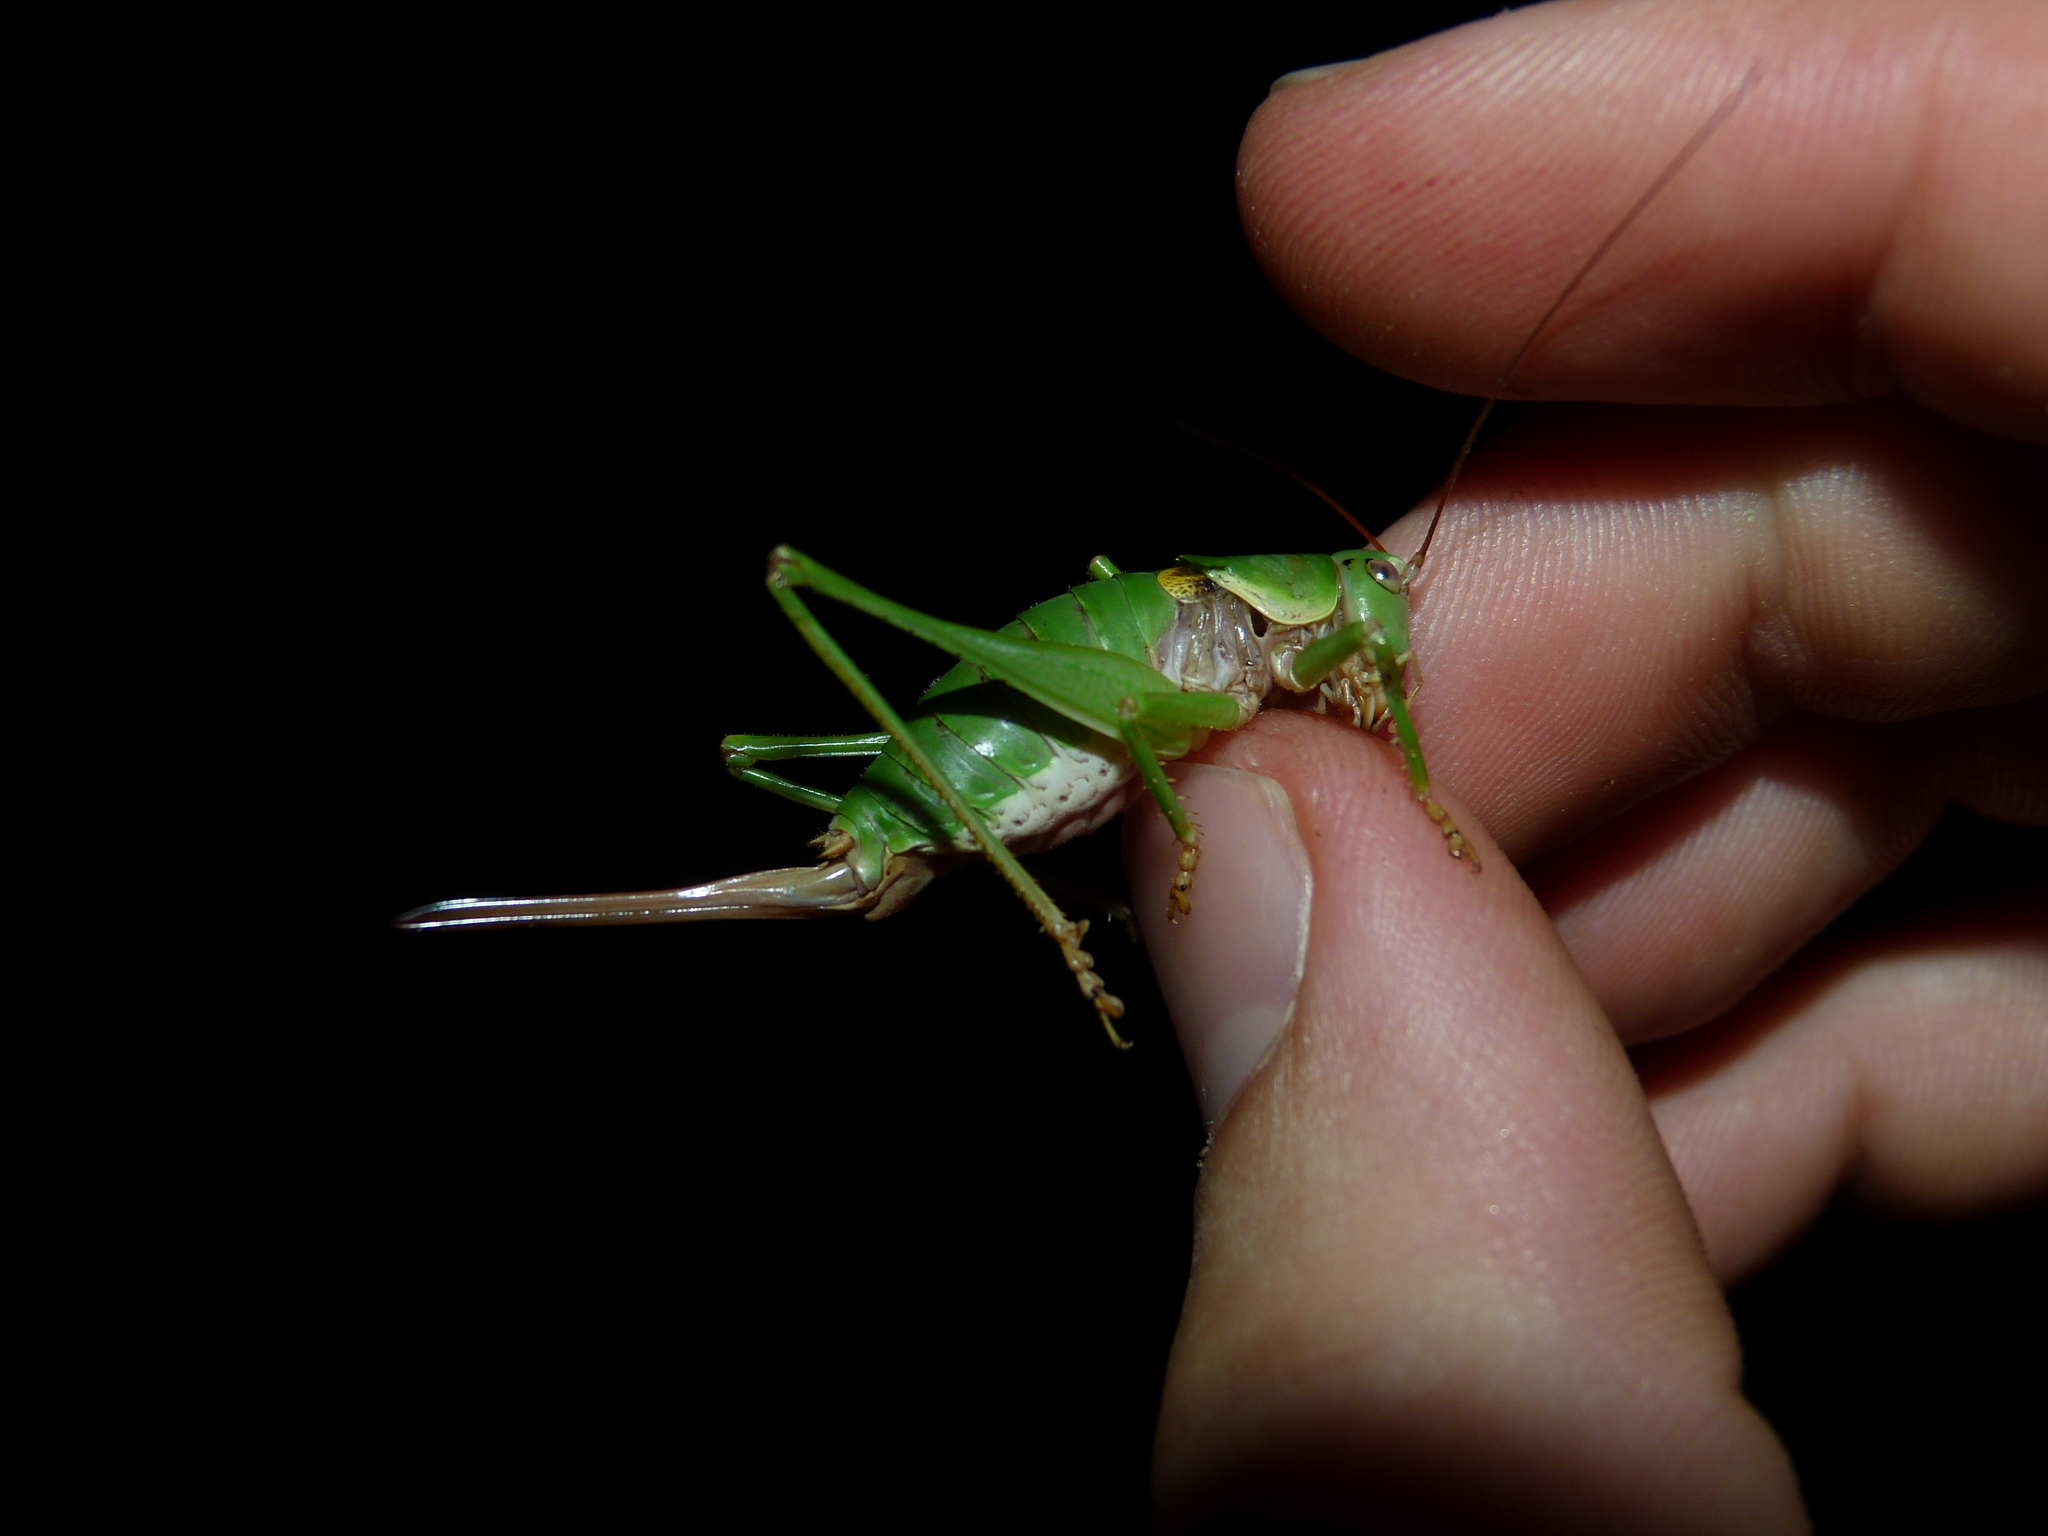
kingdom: Animalia
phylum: Arthropoda
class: Insecta
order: Orthoptera
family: Tettigoniidae
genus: Antaxius
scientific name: Antaxius sorrezensis
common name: French mountain bush-cricket
